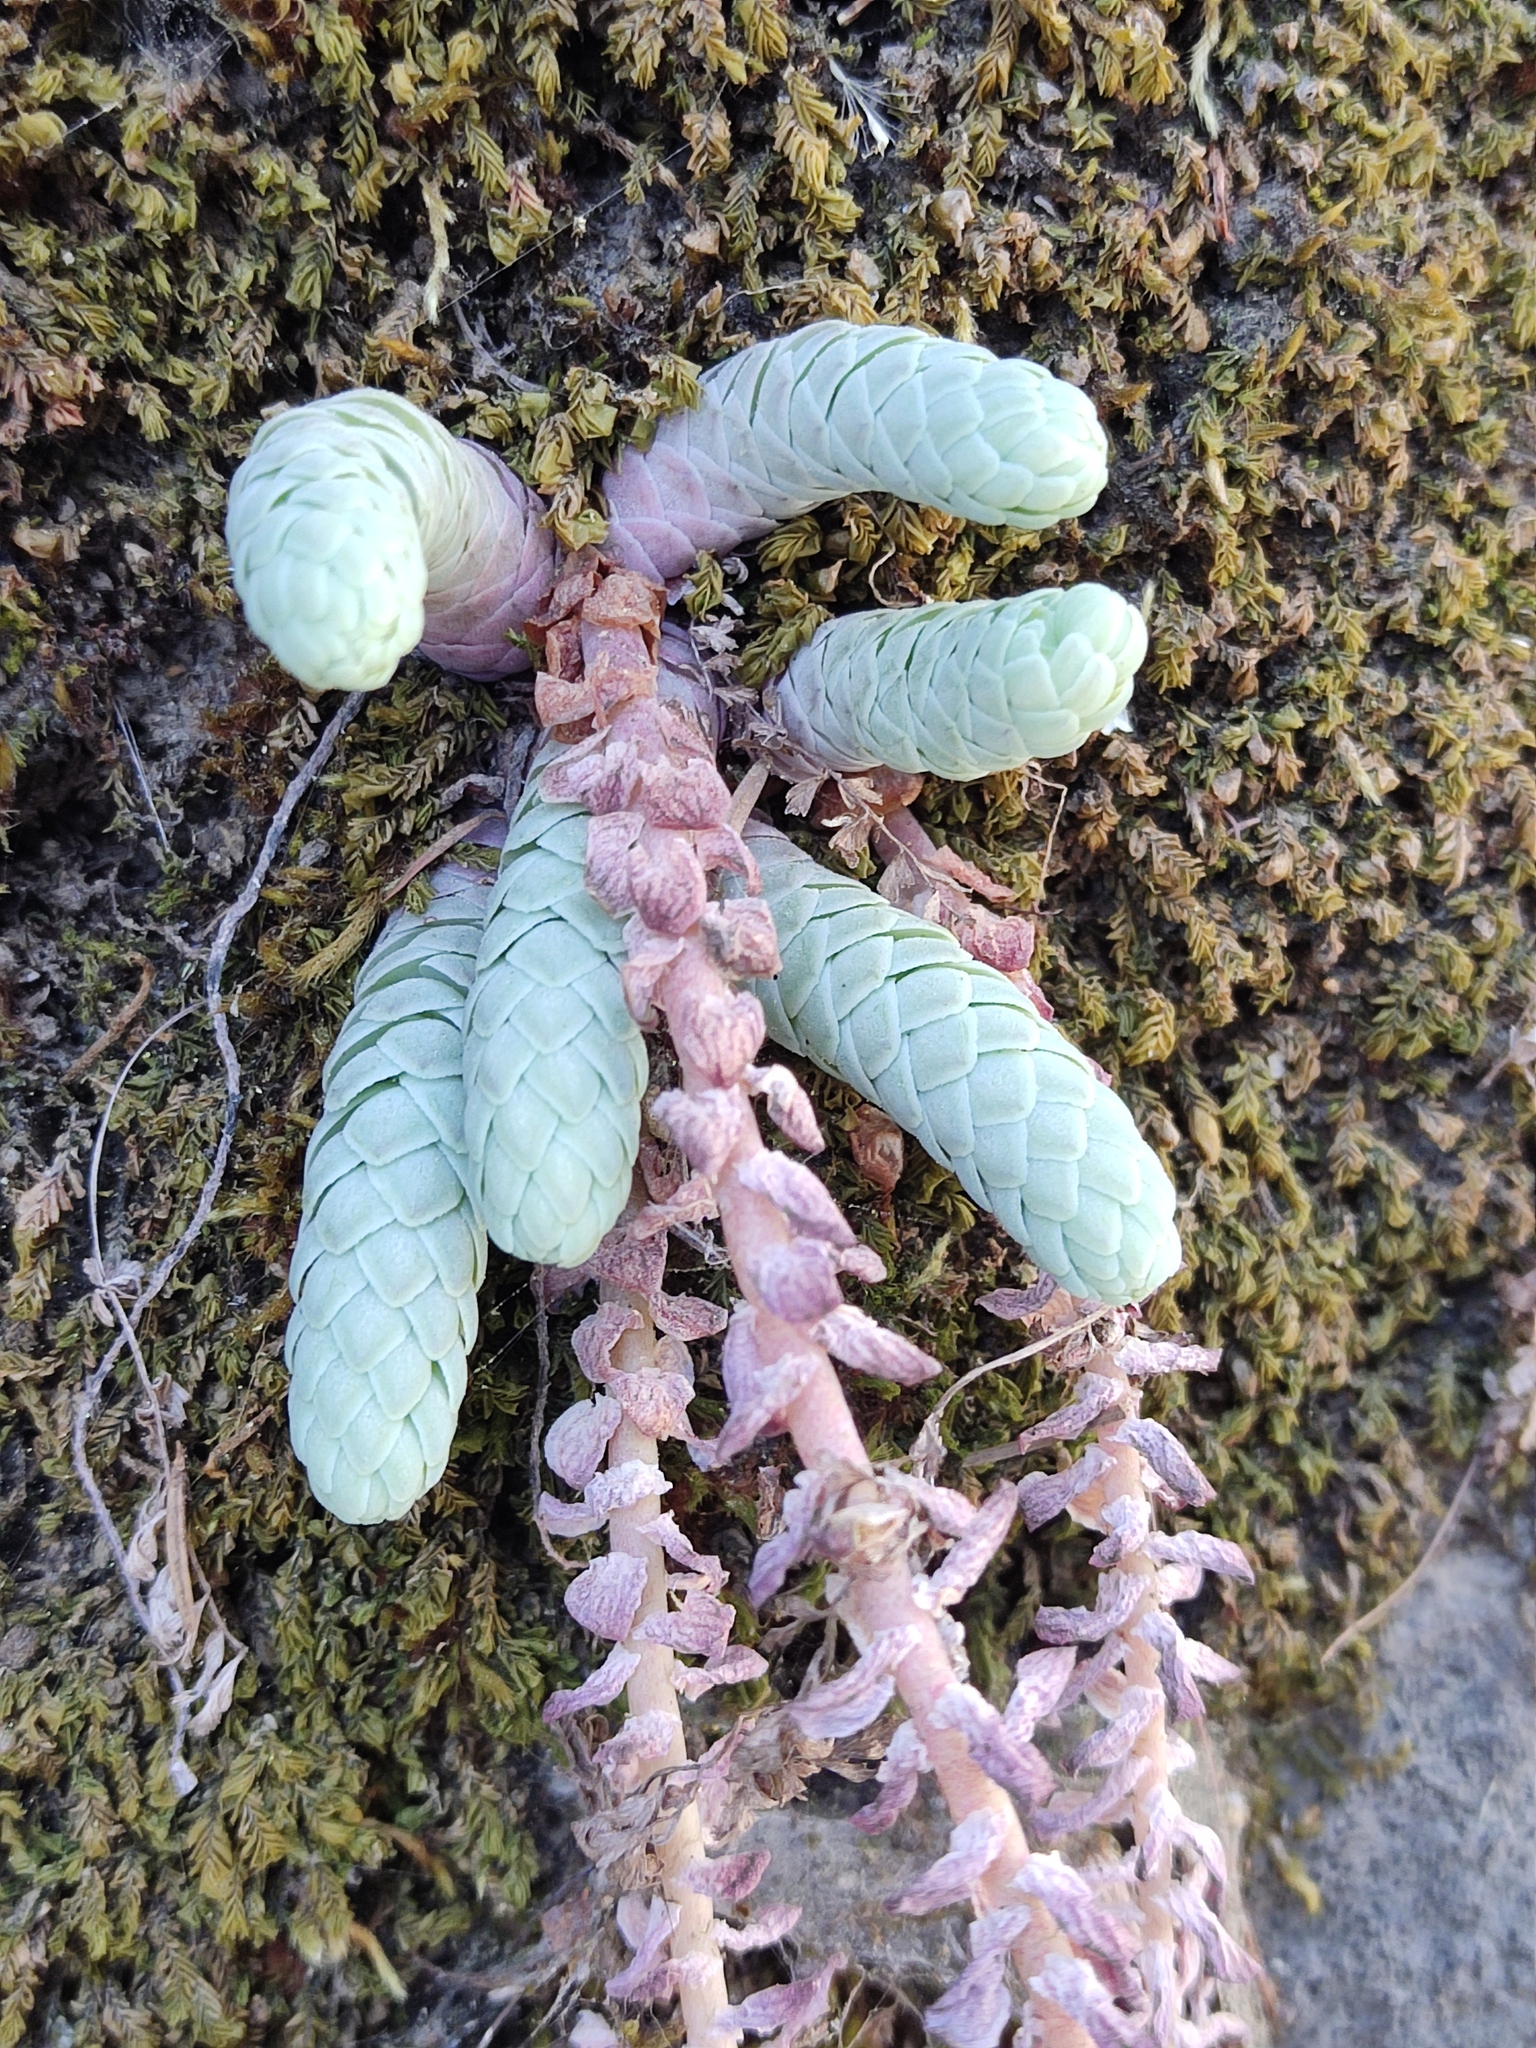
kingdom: Plantae
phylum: Tracheophyta
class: Magnoliopsida
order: Saxifragales
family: Crassulaceae
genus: Sedum
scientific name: Sedum grandipetalum
